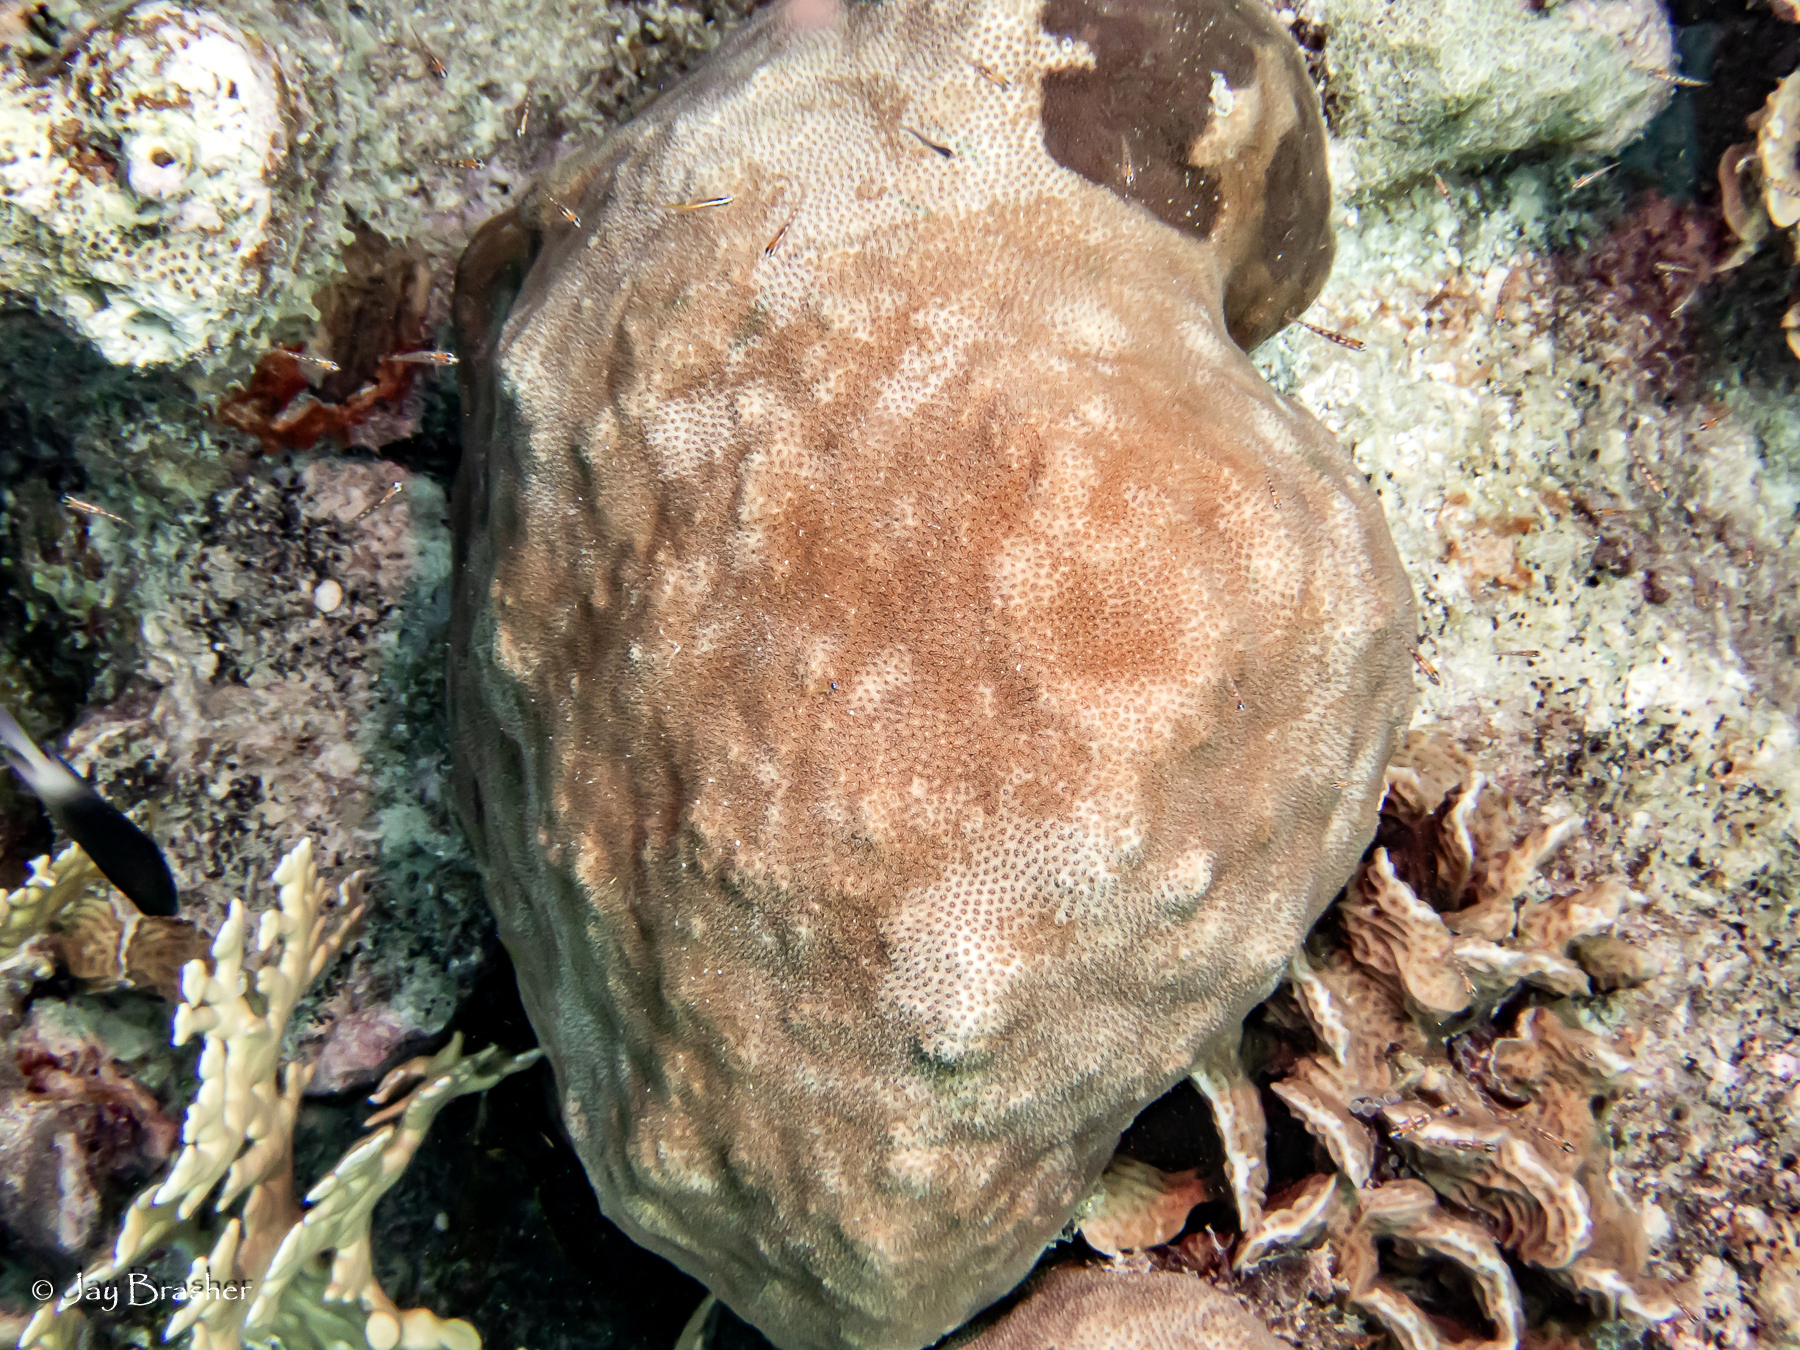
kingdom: Animalia
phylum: Cnidaria
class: Anthozoa
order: Scleractinia
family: Faviidae
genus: Solenastrea
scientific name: Solenastrea bournoni
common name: Smooth star coral
